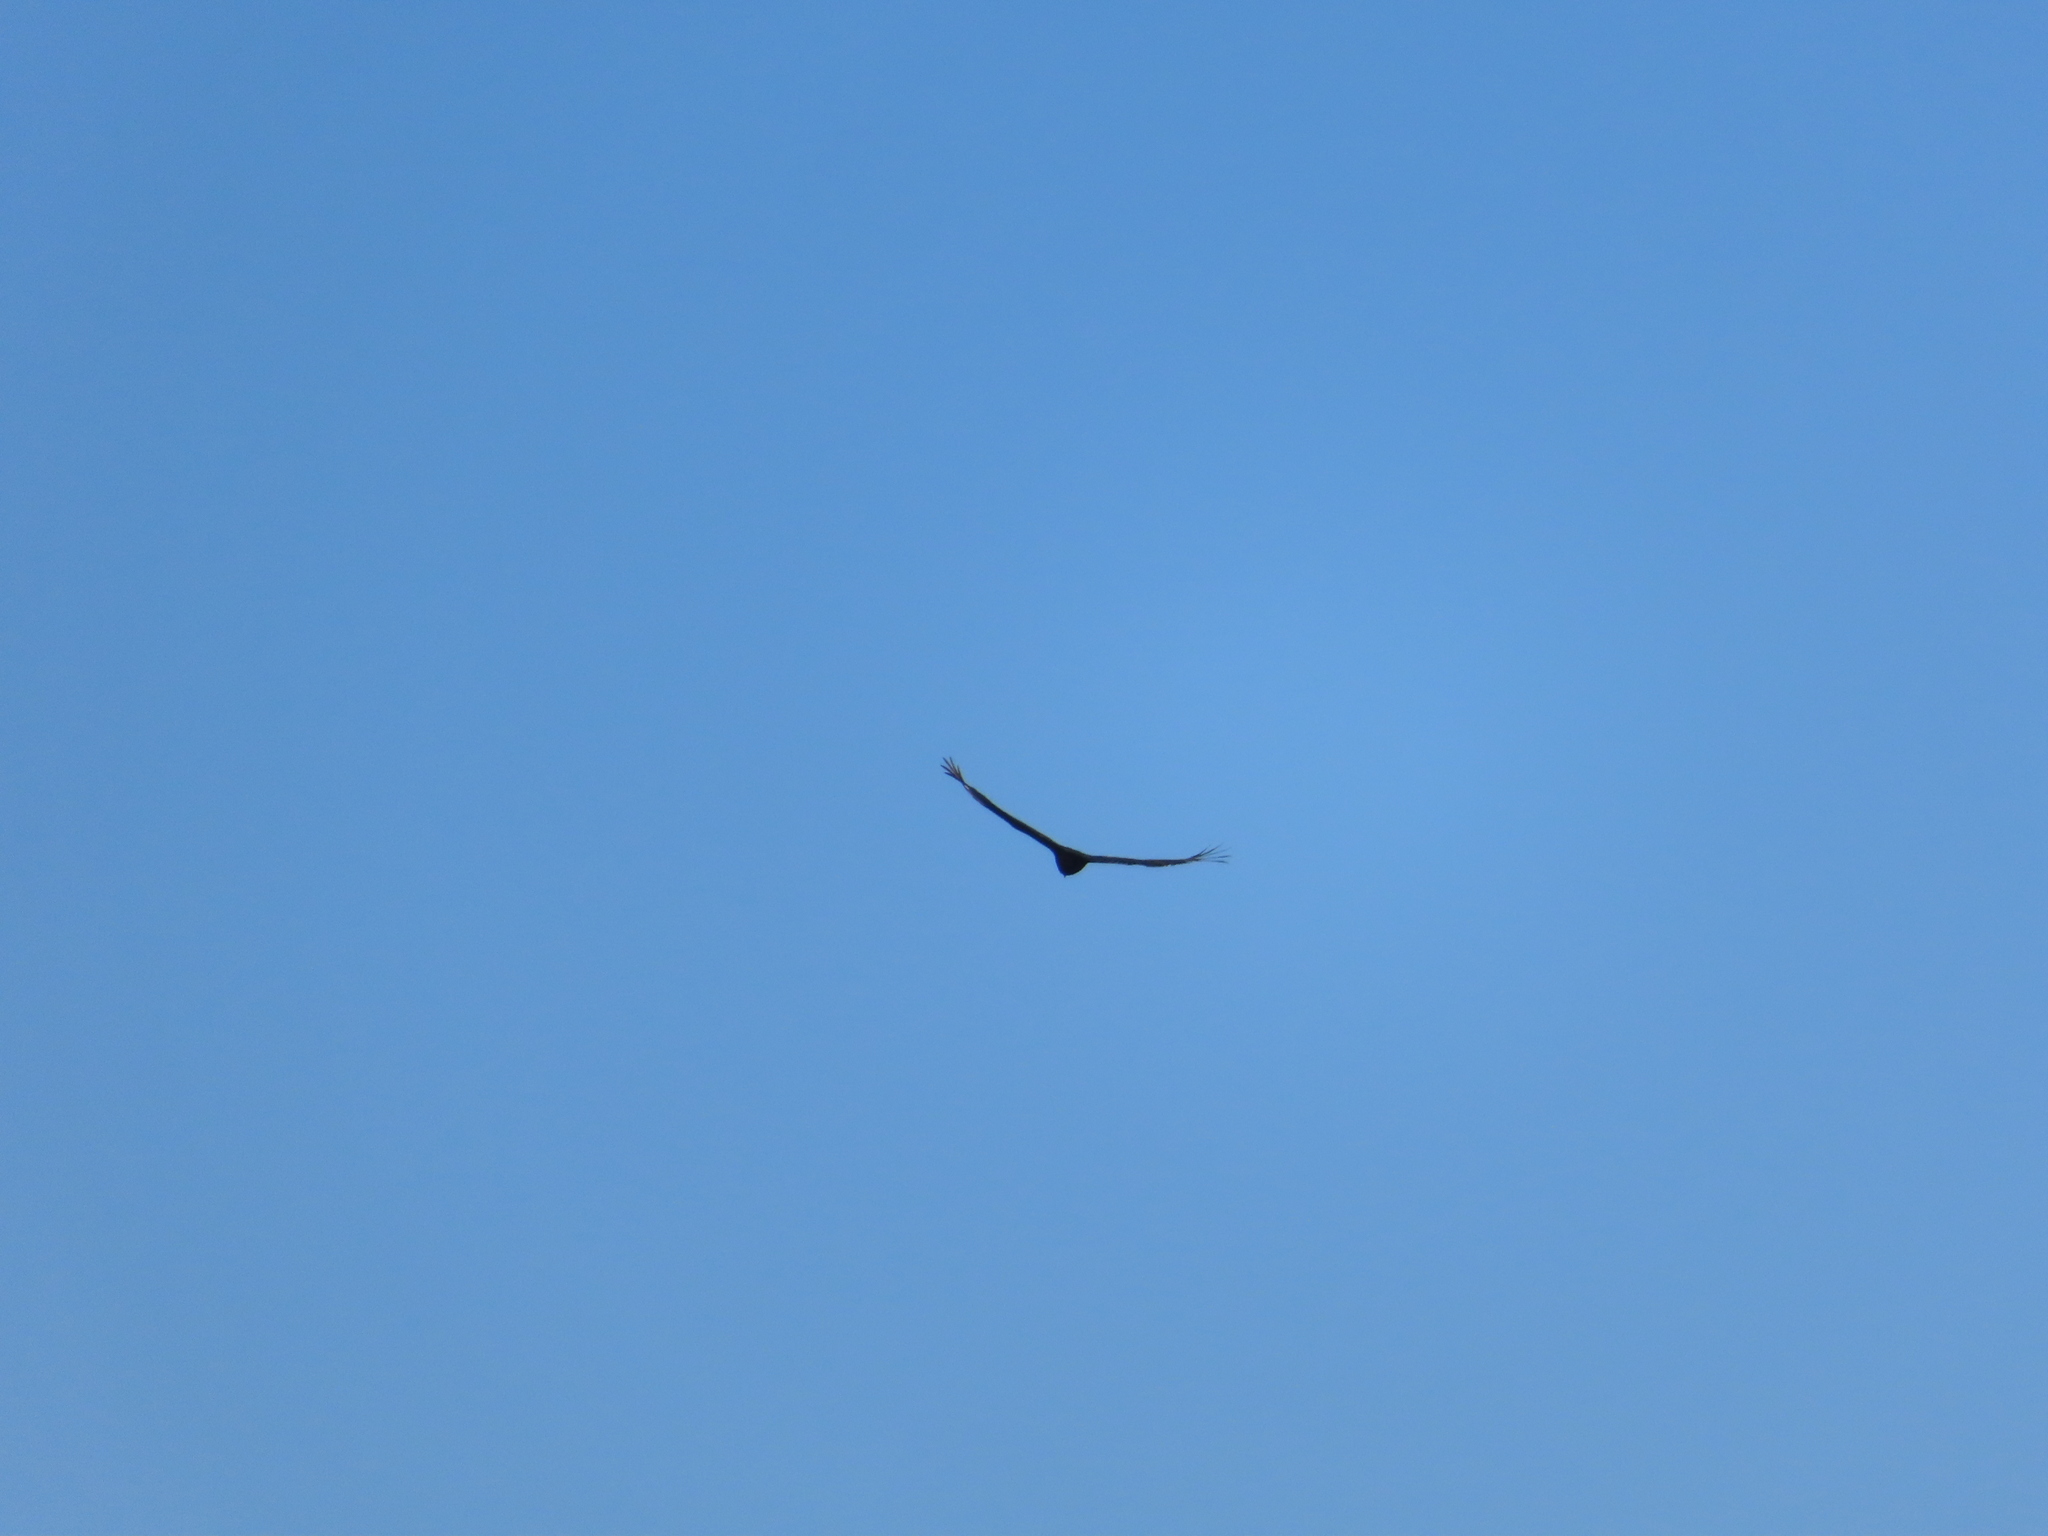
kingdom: Animalia
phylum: Chordata
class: Aves
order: Accipitriformes
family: Cathartidae
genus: Cathartes
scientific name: Cathartes aura
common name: Turkey vulture
